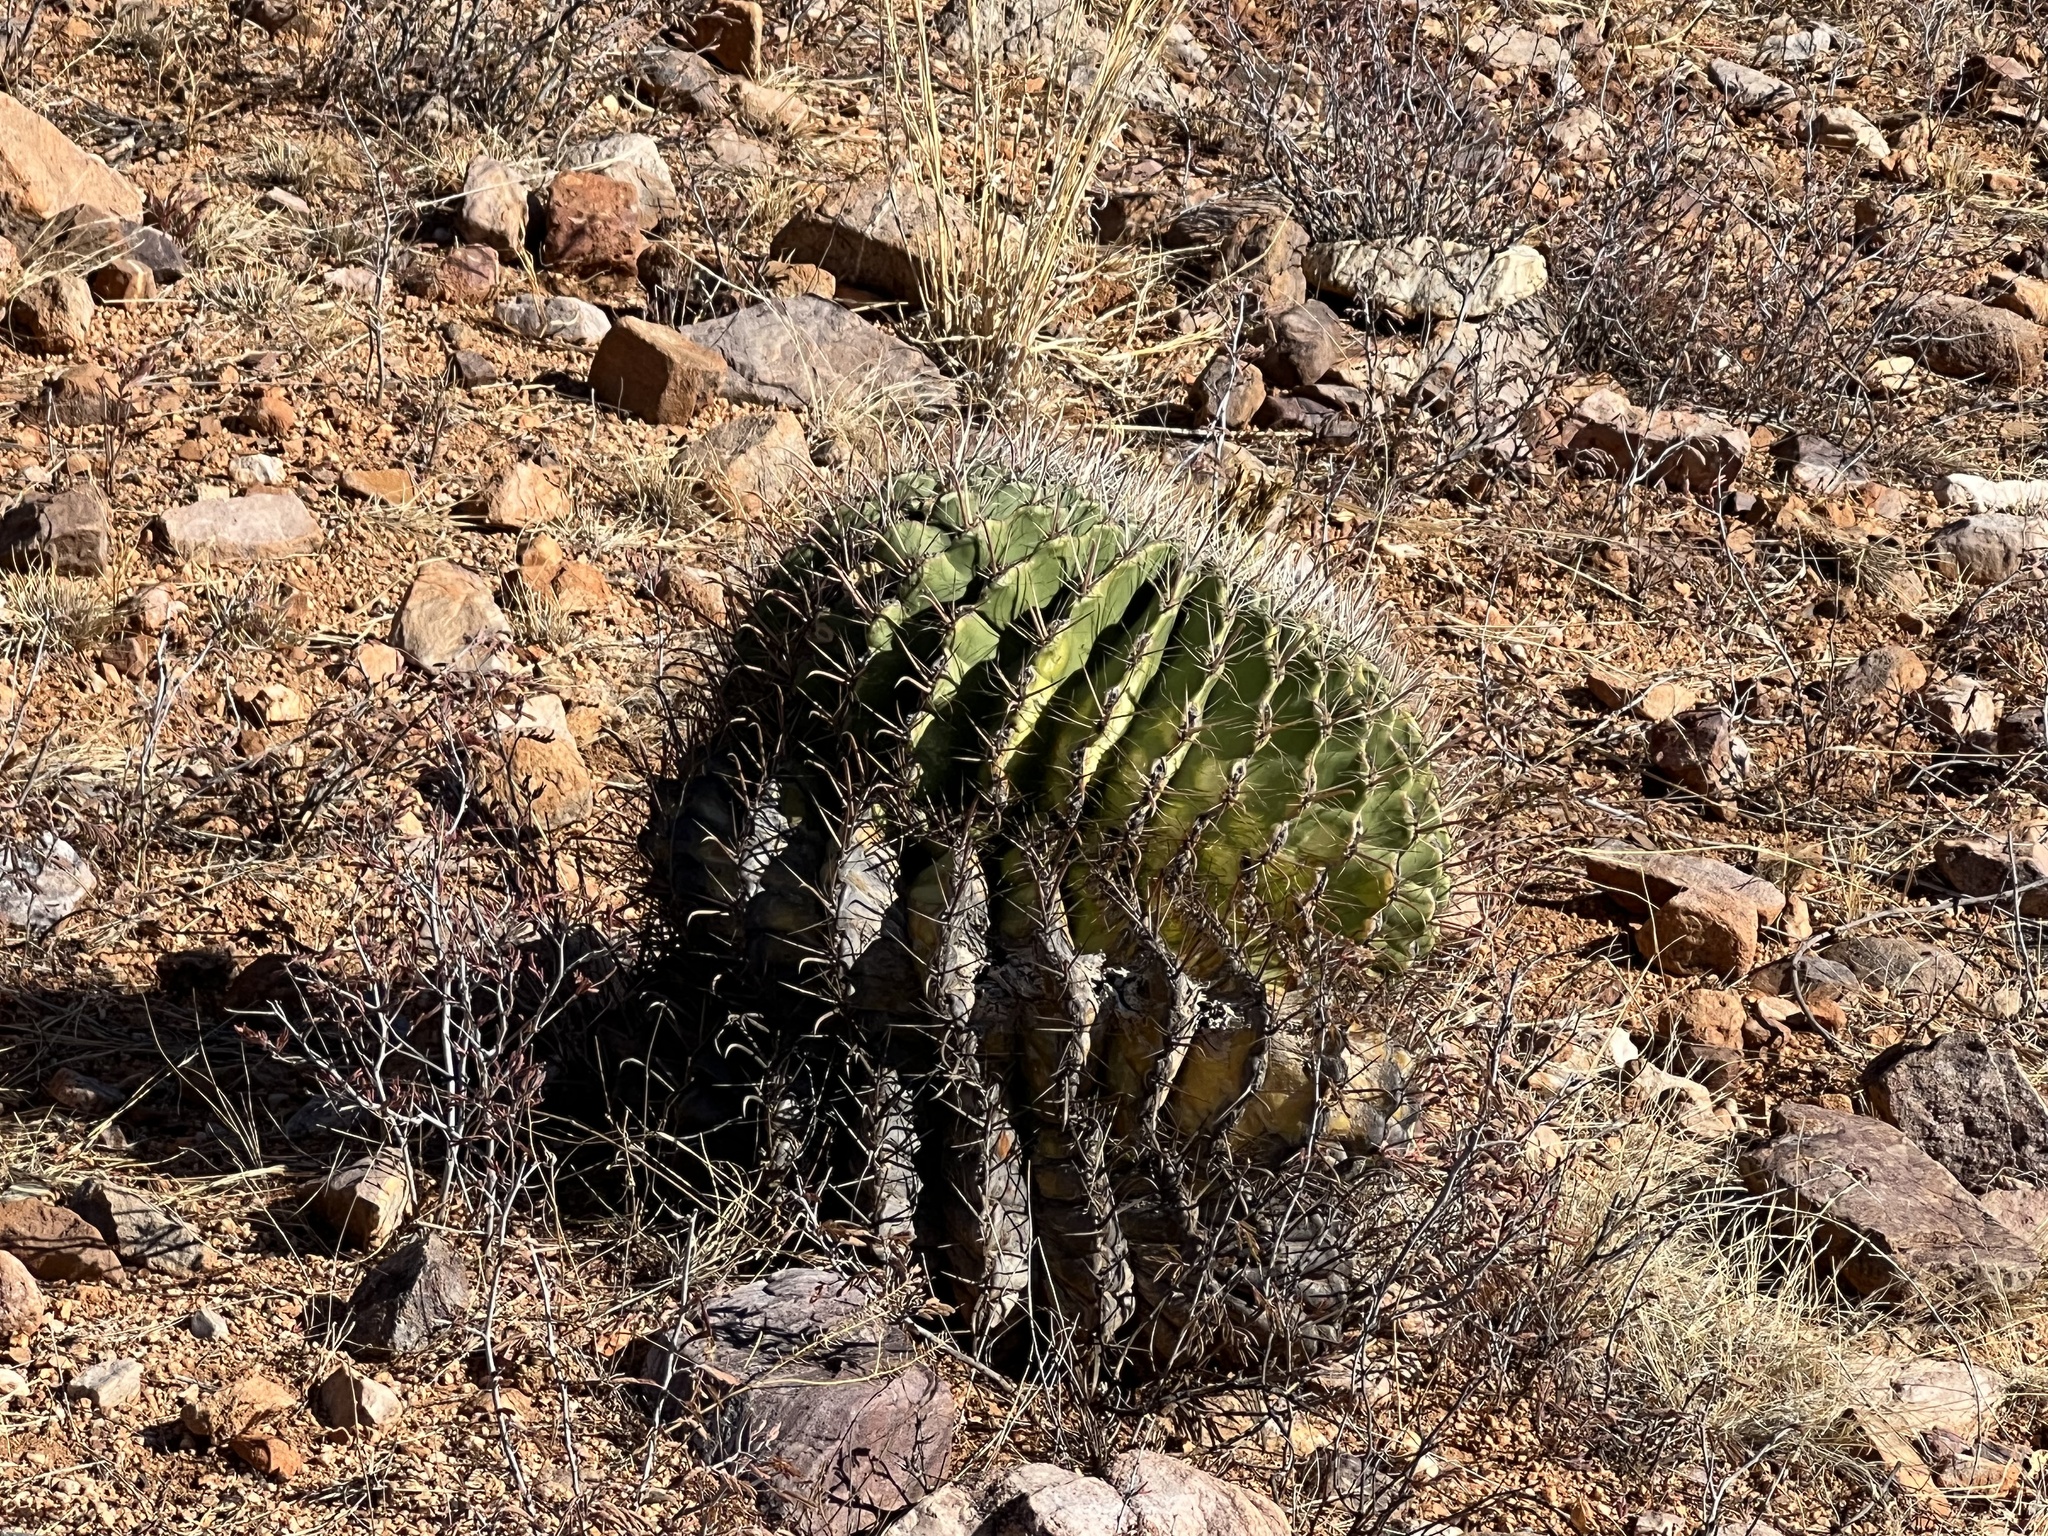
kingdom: Plantae
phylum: Tracheophyta
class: Magnoliopsida
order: Caryophyllales
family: Cactaceae
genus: Ferocactus
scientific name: Ferocactus wislizeni
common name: Candy barrel cactus
